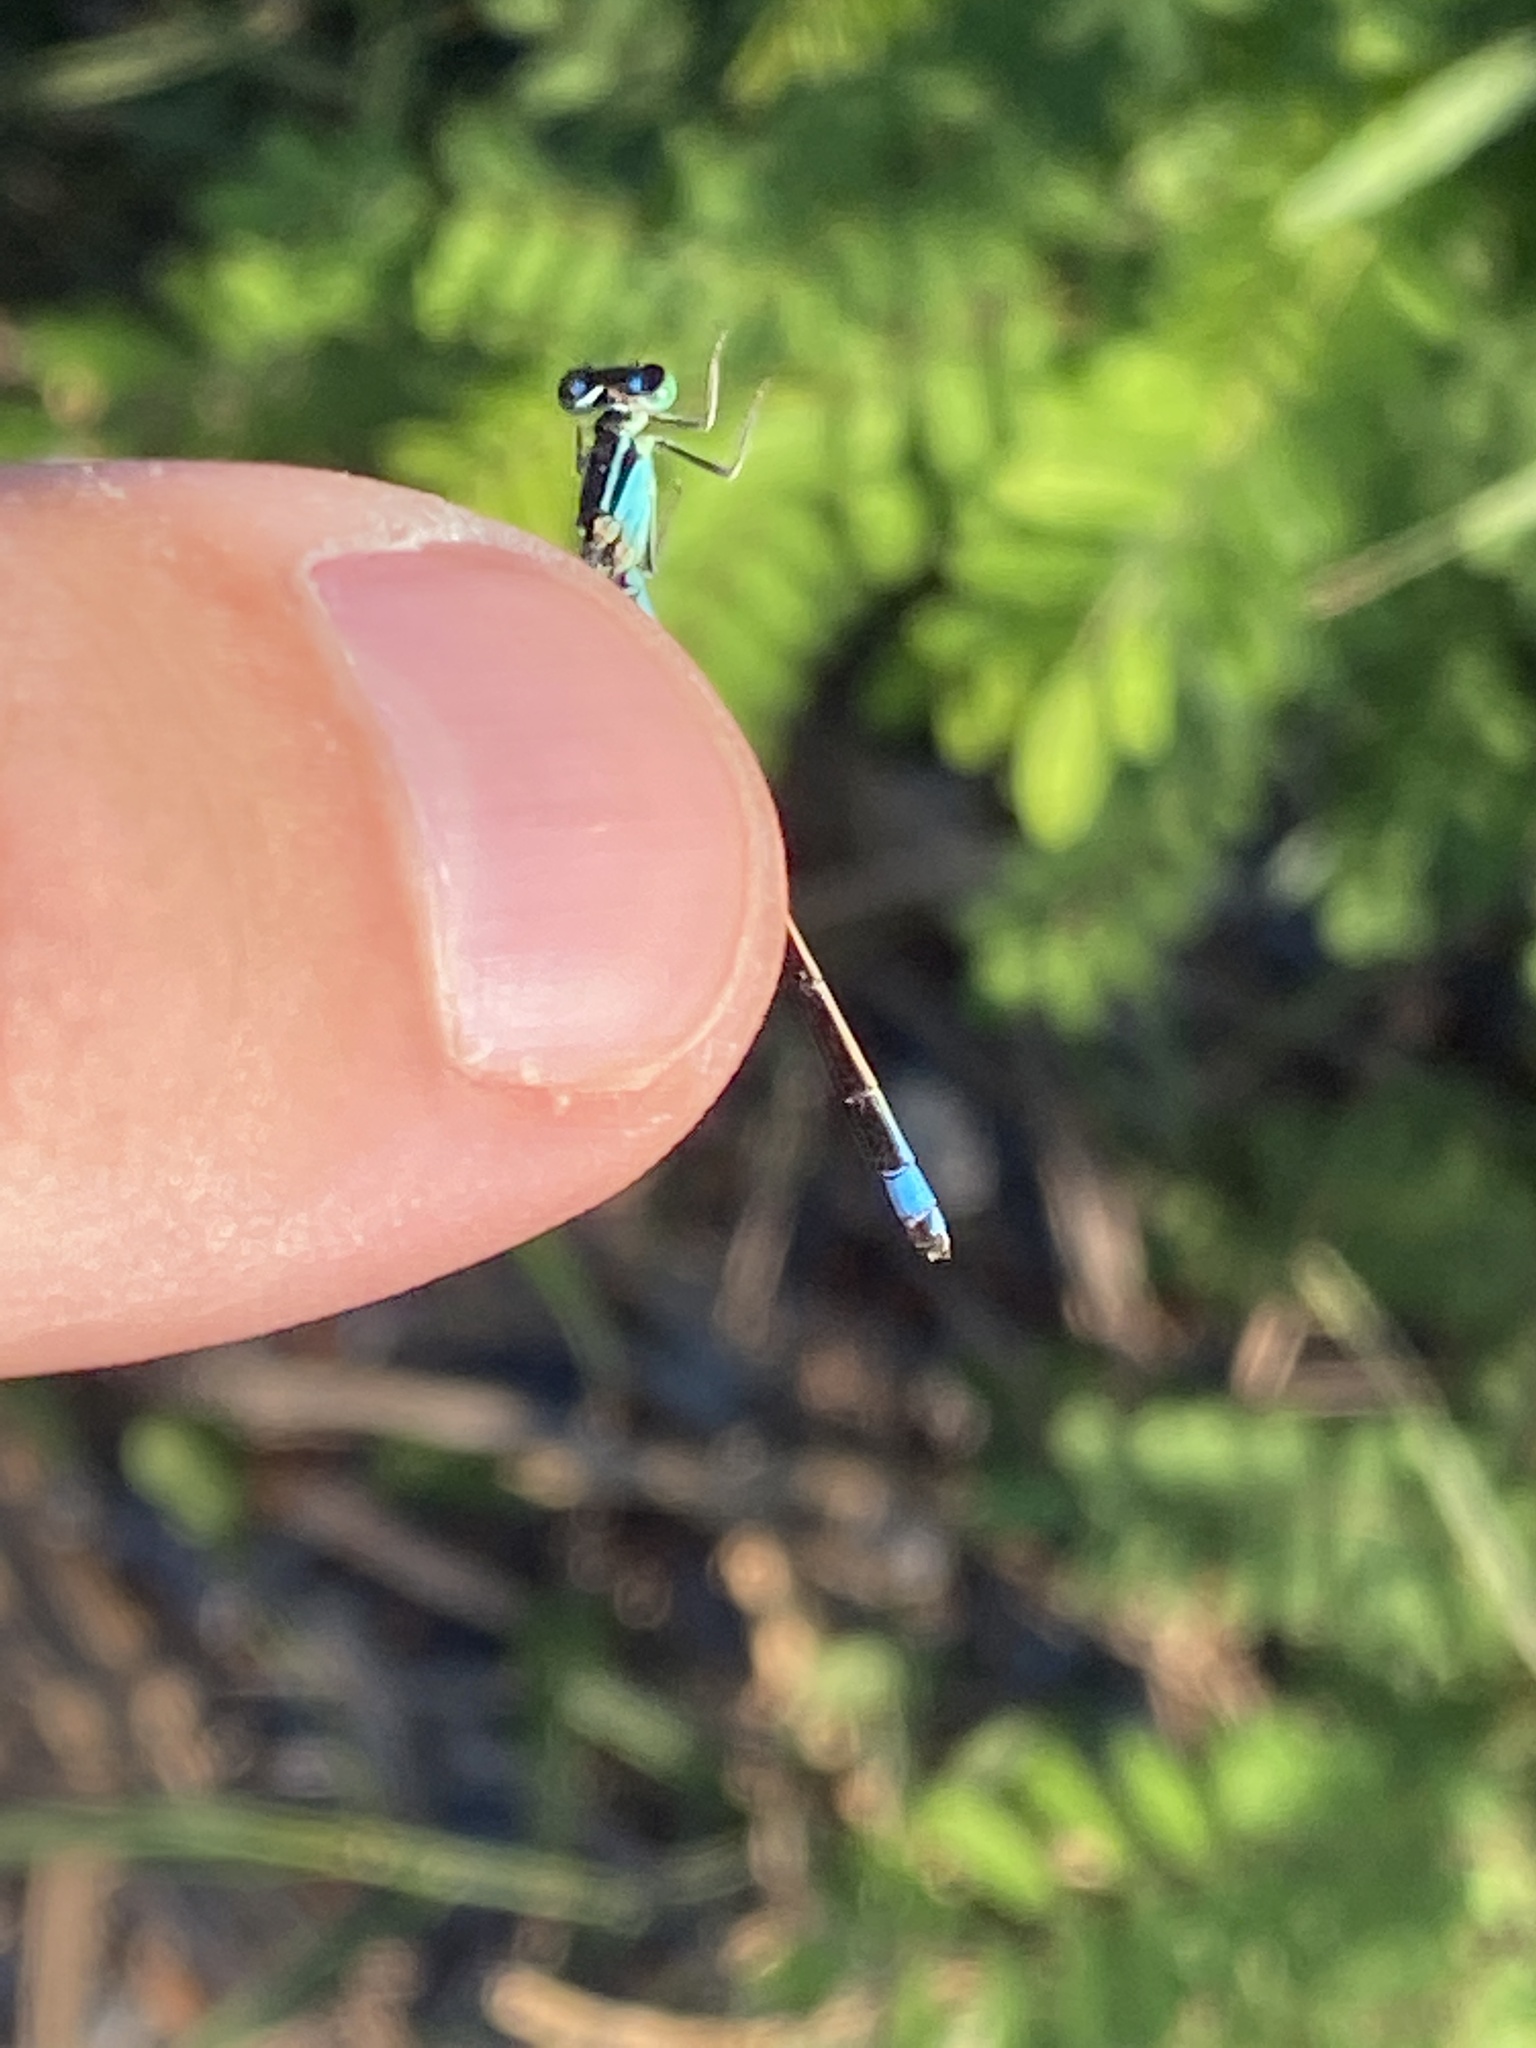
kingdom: Animalia
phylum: Arthropoda
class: Insecta
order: Odonata
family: Coenagrionidae
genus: Ischnura
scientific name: Ischnura elegans
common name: Blue-tailed damselfly
